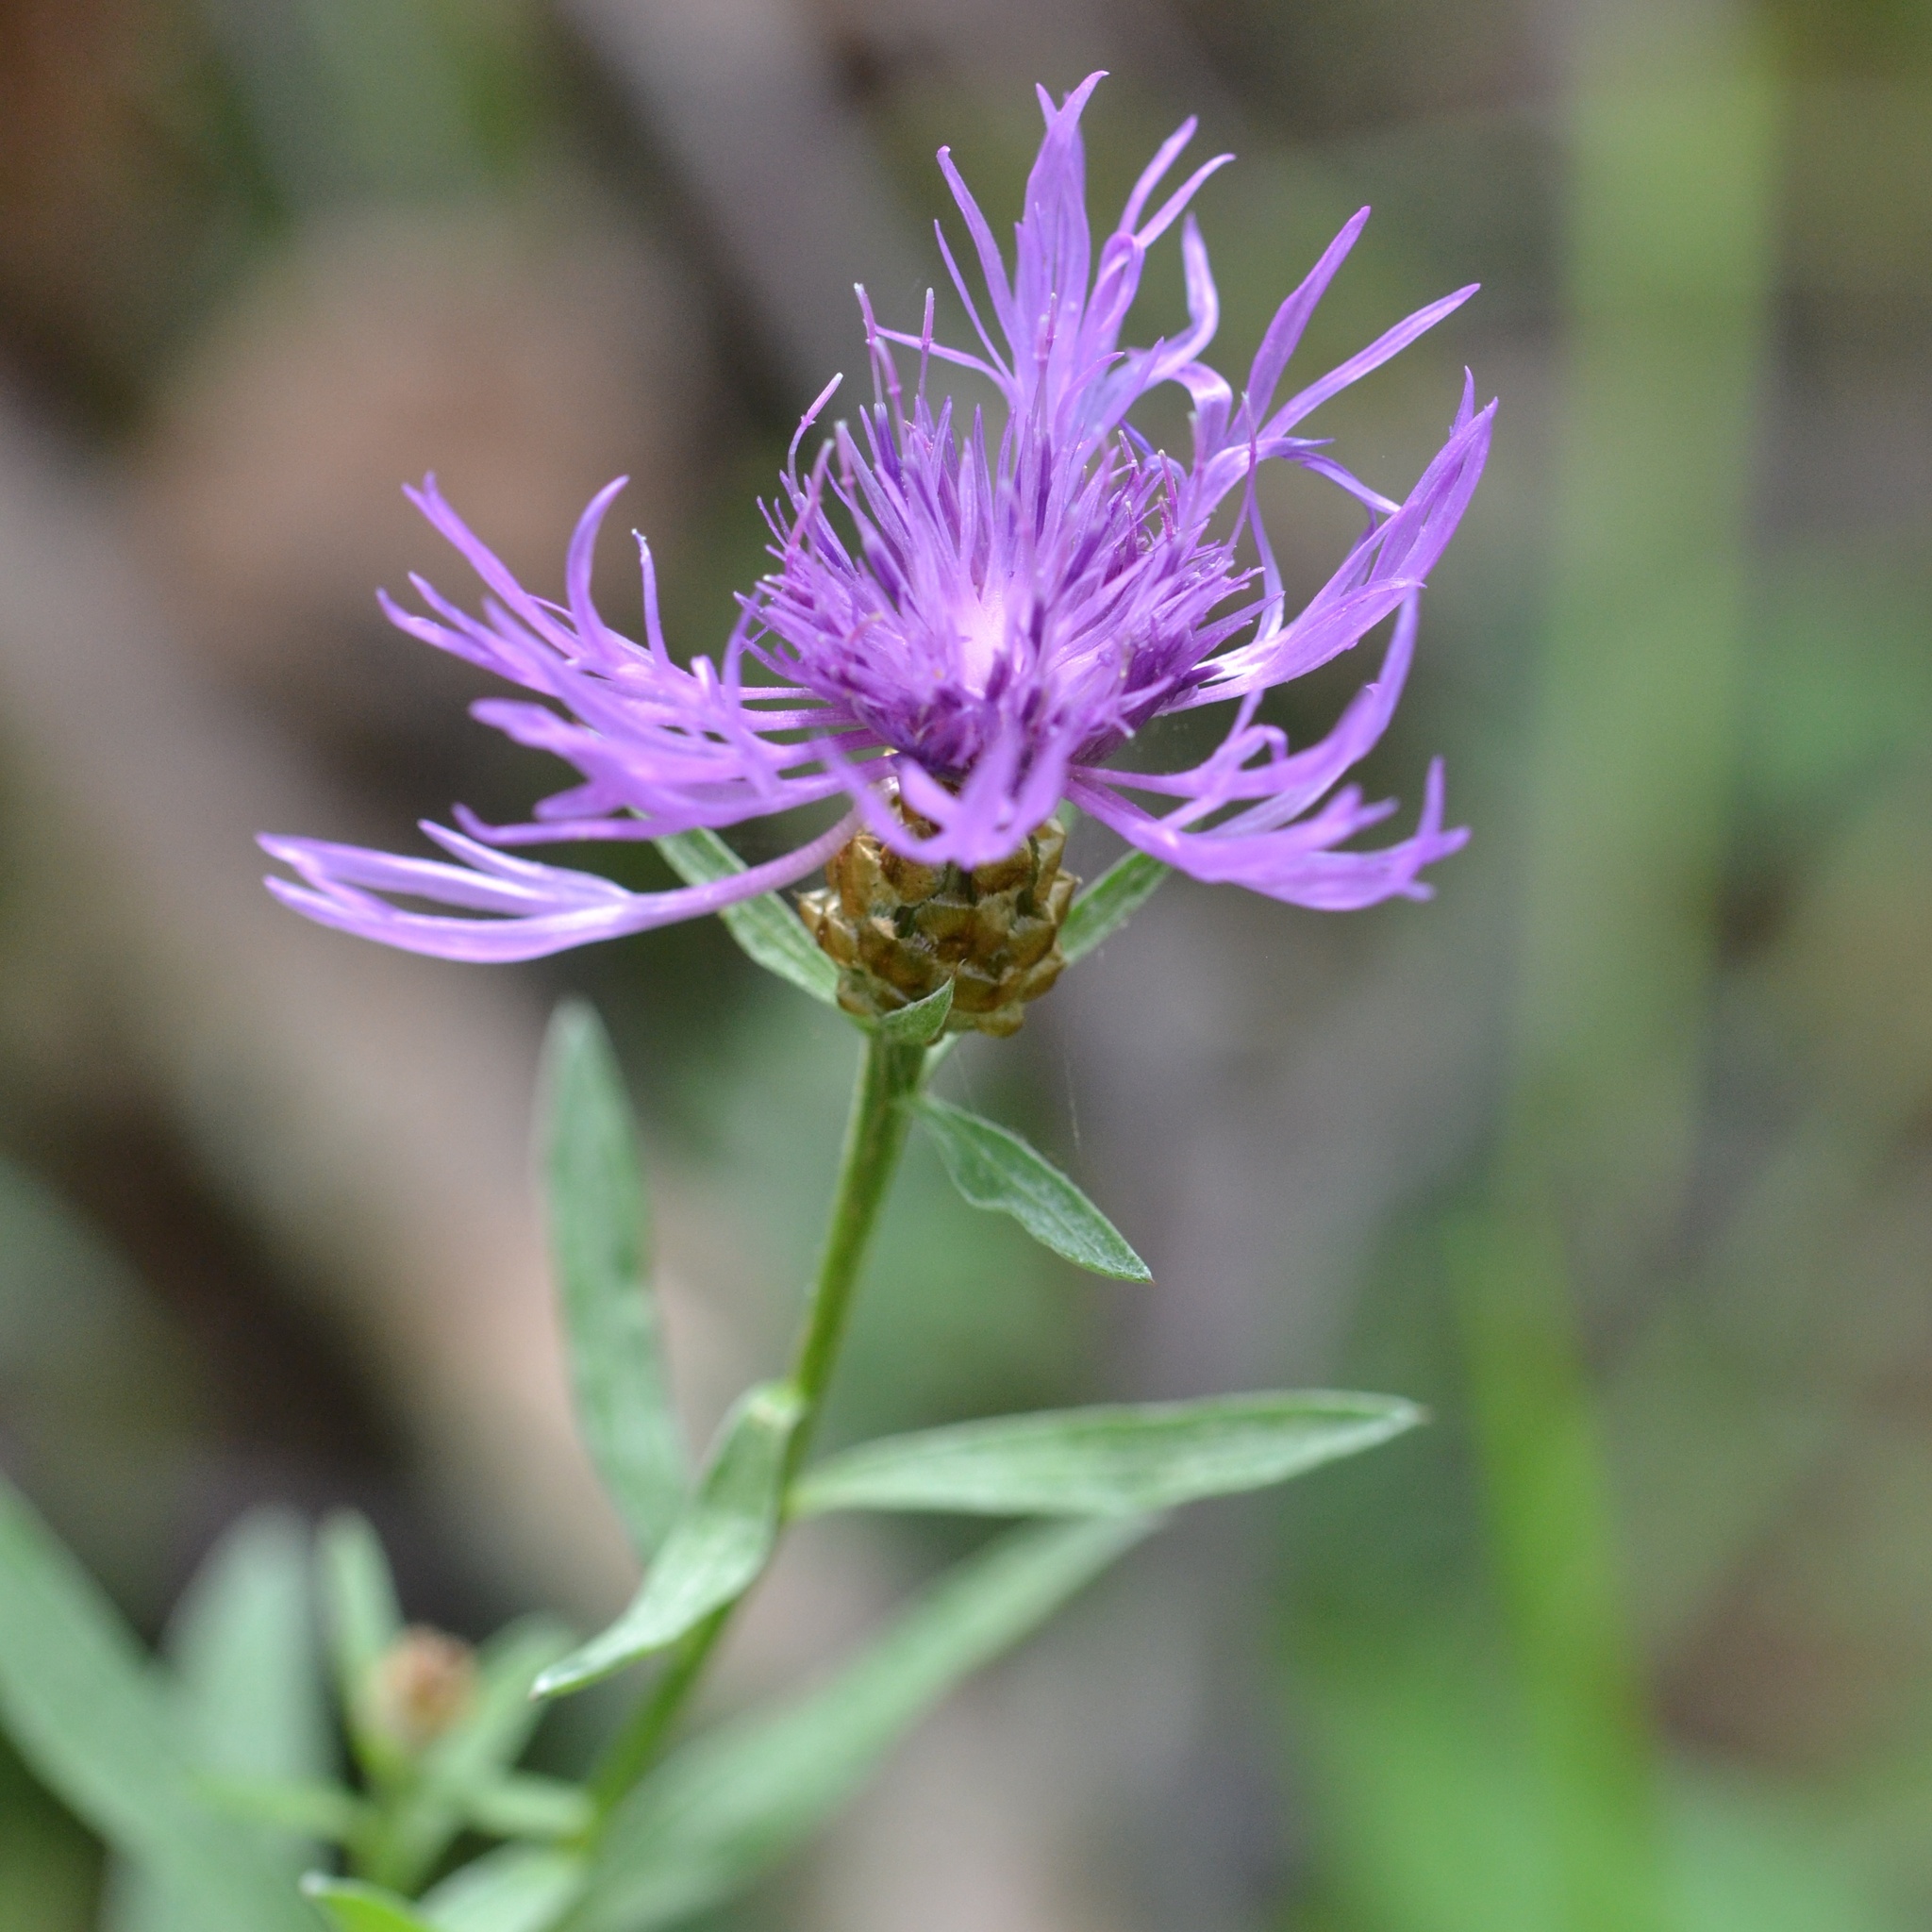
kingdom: Plantae
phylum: Tracheophyta
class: Magnoliopsida
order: Asterales
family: Asteraceae
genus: Centaurea
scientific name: Centaurea jacea
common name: Brown knapweed
